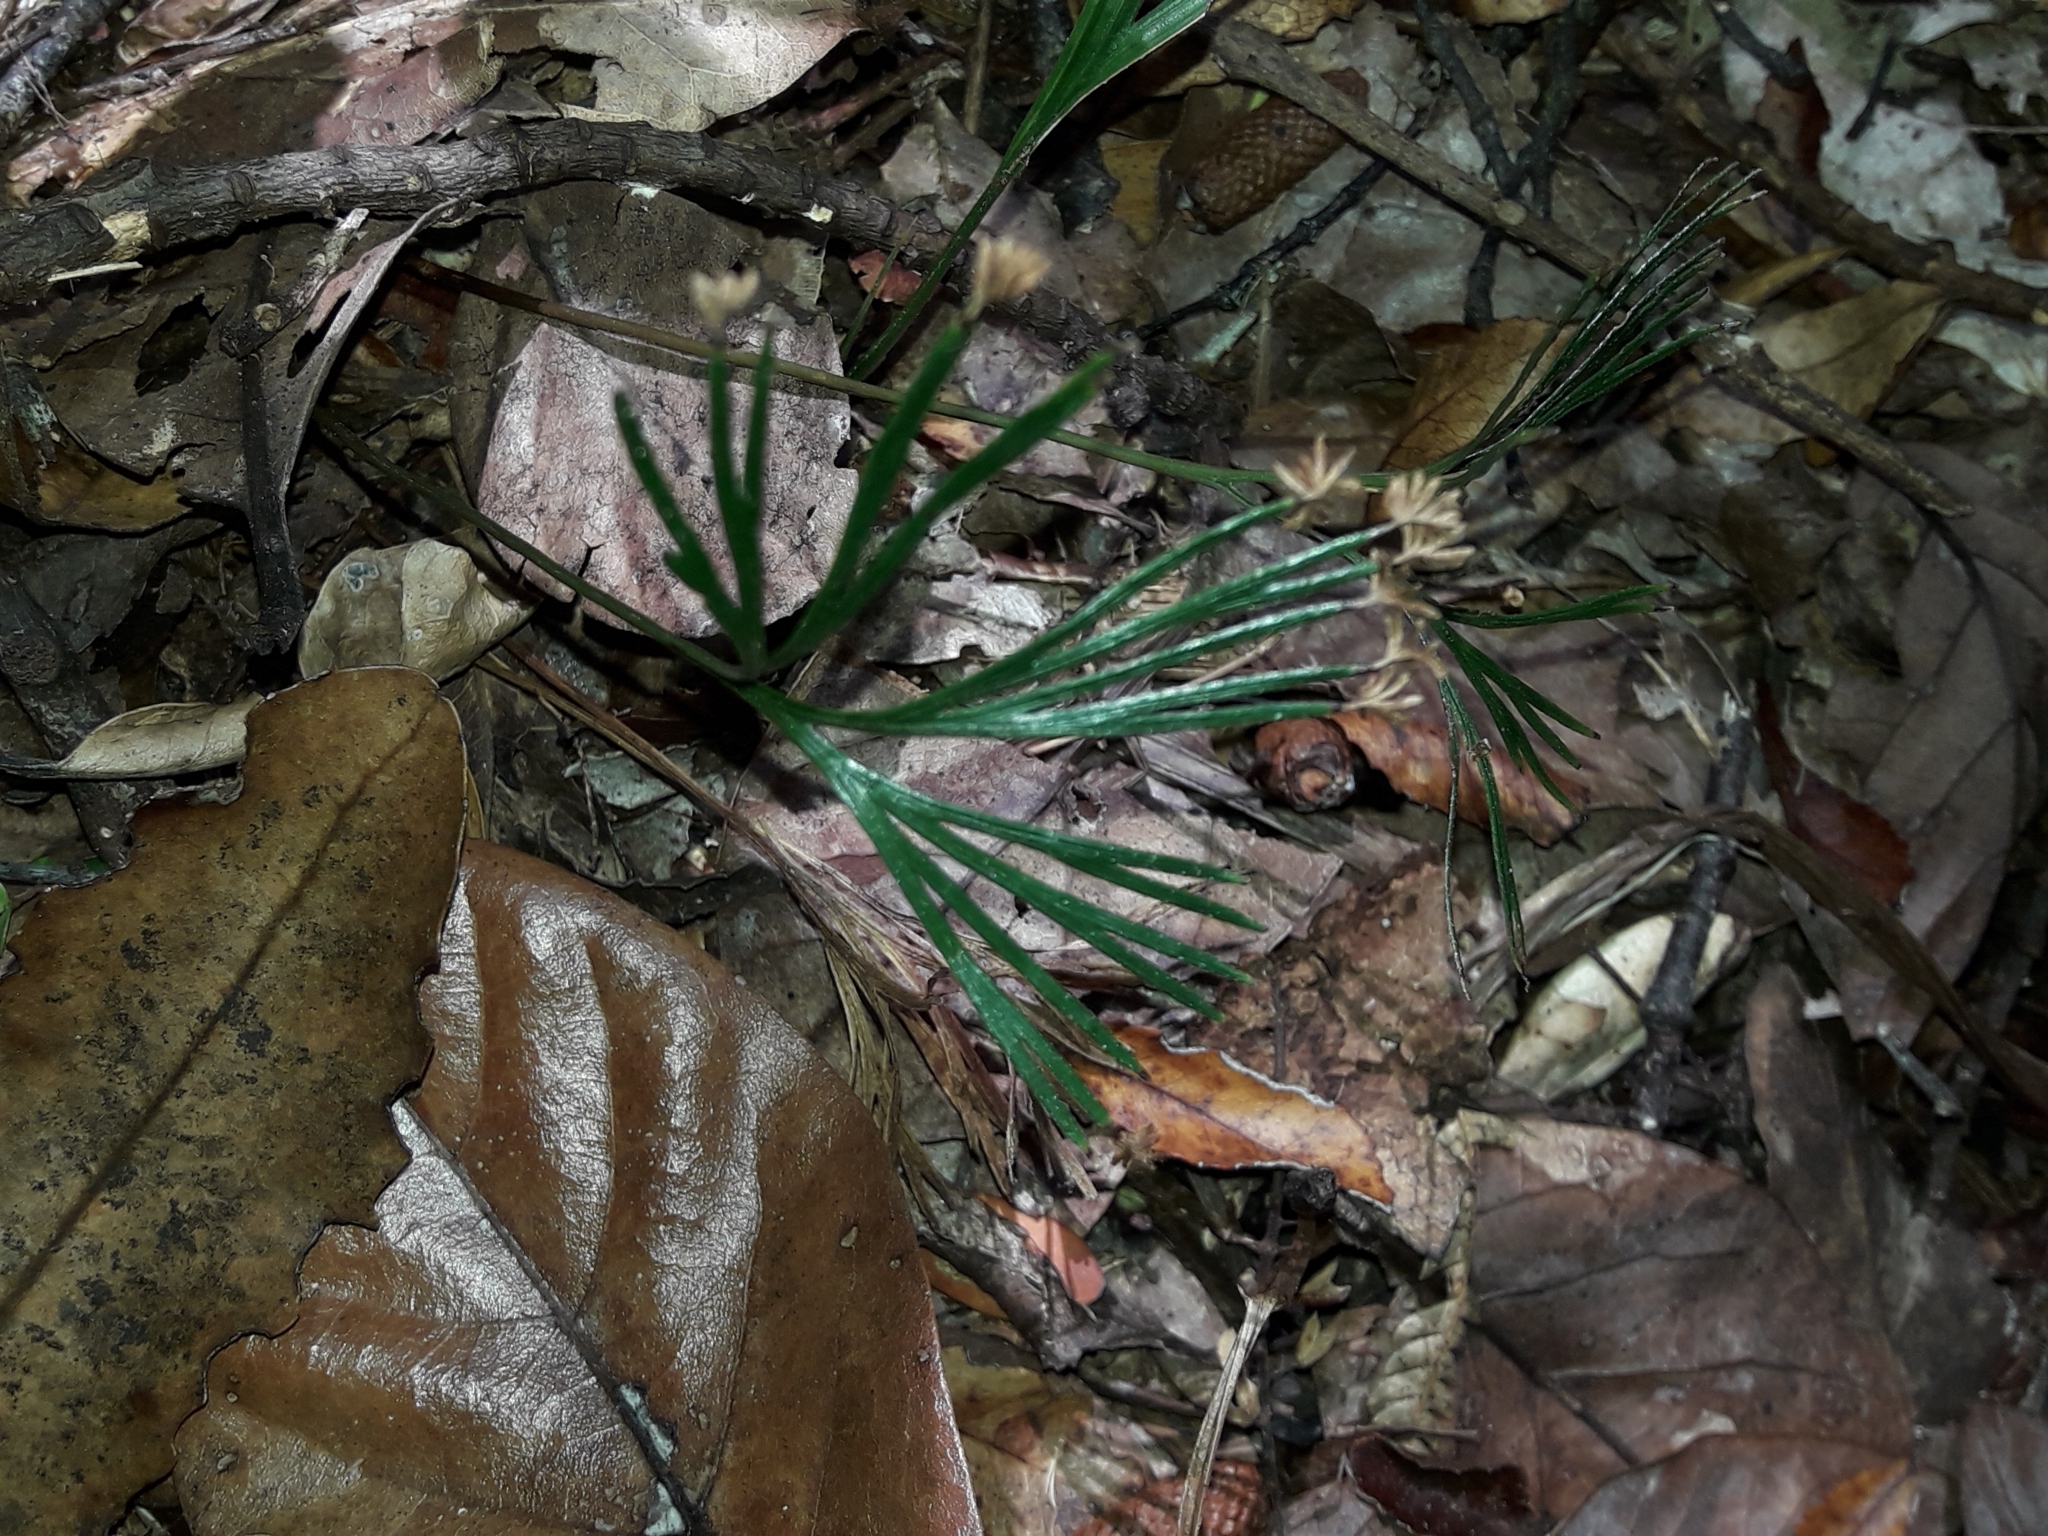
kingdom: Plantae
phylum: Tracheophyta
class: Polypodiopsida
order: Schizaeales
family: Schizaeaceae
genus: Schizaea
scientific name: Schizaea dichotoma
